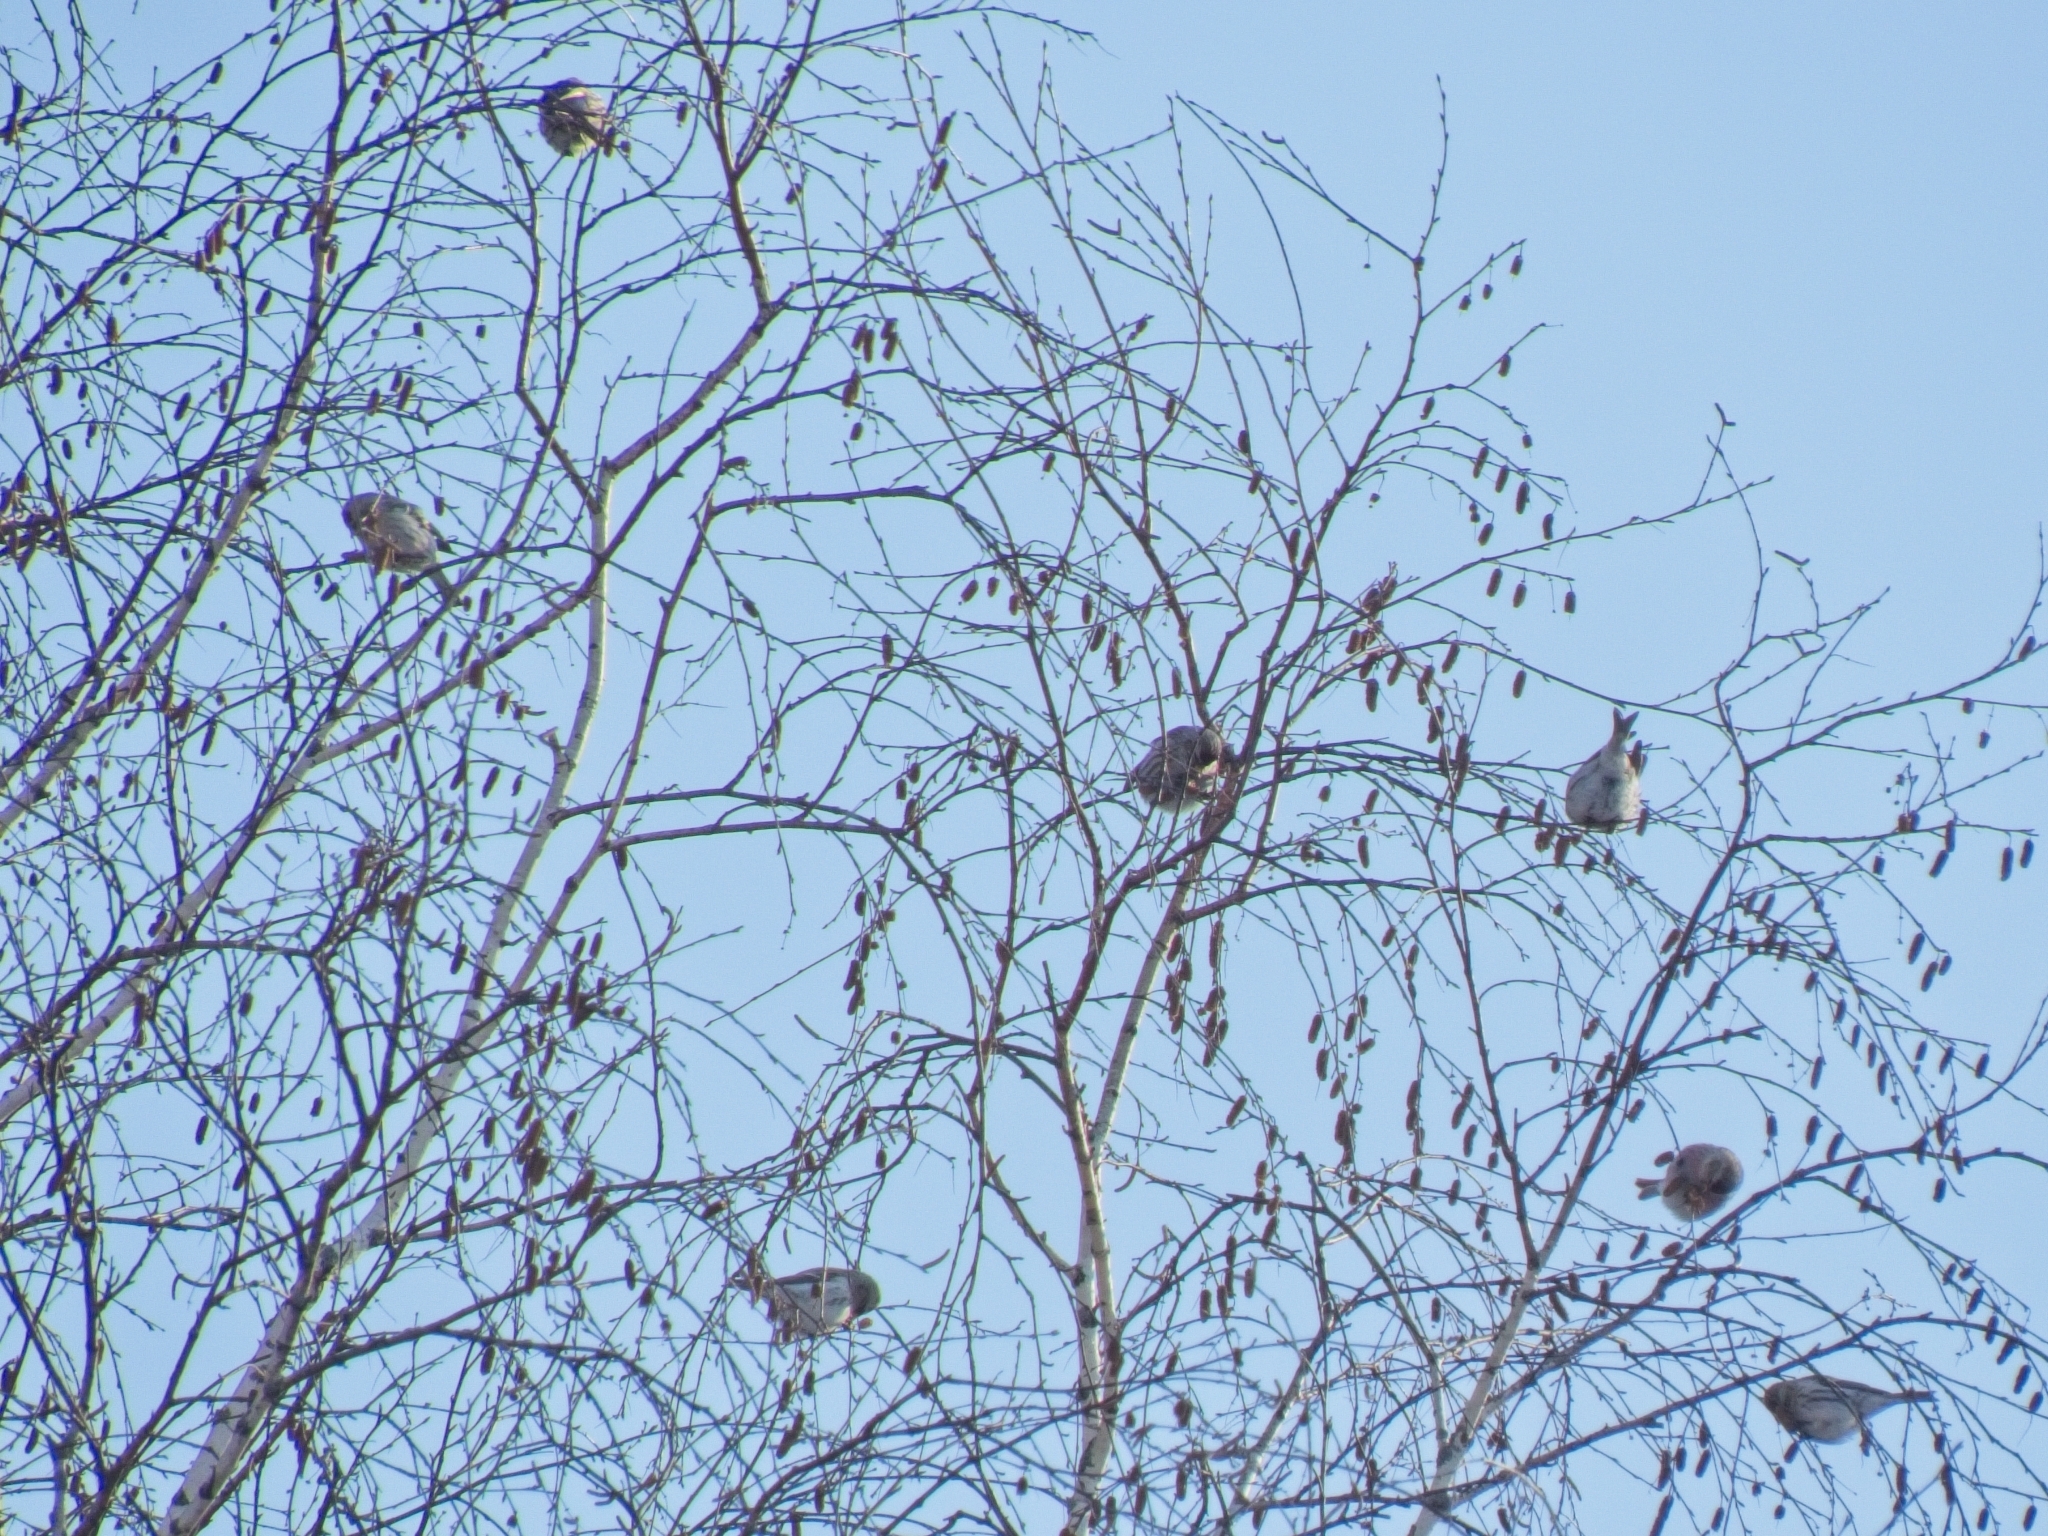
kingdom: Animalia
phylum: Chordata
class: Aves
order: Passeriformes
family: Fringillidae
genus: Acanthis
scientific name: Acanthis flammea
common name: Common redpoll
